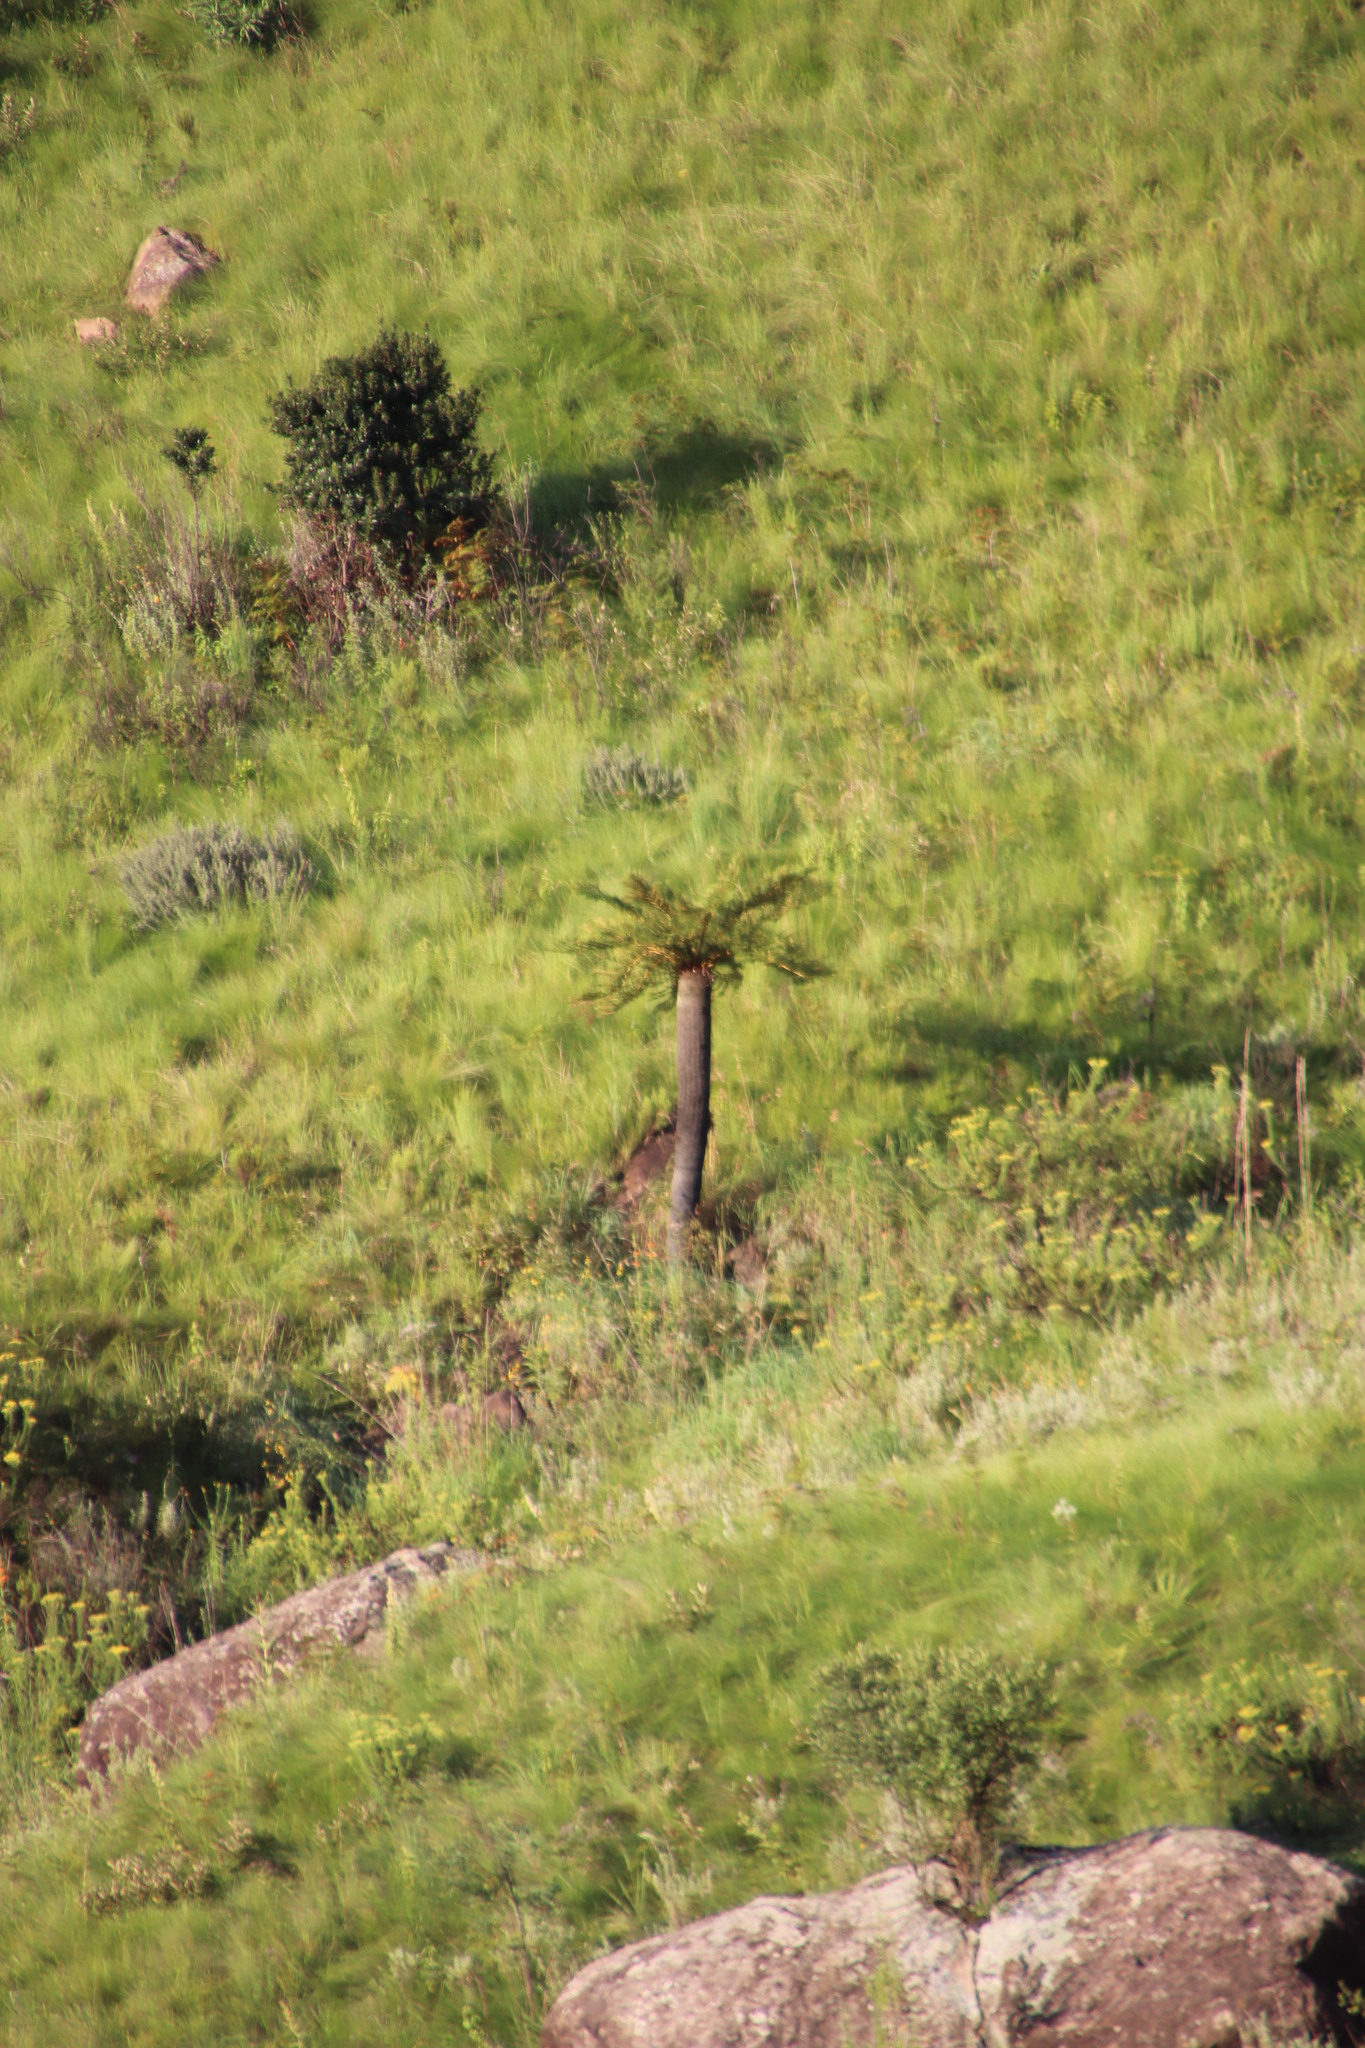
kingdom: Plantae
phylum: Tracheophyta
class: Polypodiopsida
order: Cyatheales
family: Cyatheaceae
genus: Alsophila
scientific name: Alsophila dregei
